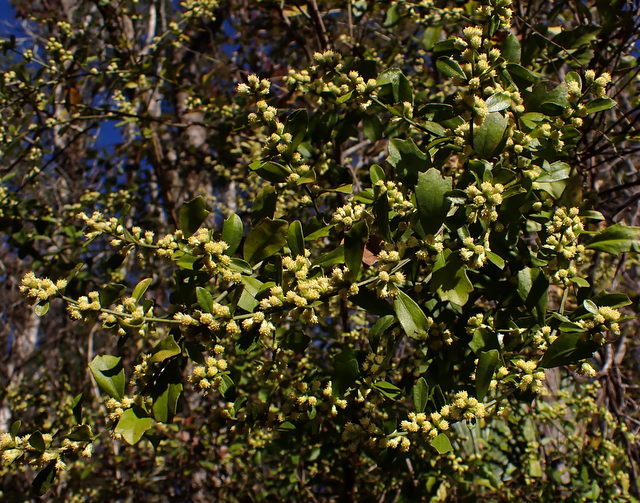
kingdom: Plantae
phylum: Tracheophyta
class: Magnoliopsida
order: Asterales
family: Asteraceae
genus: Baccharis
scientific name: Baccharis glomeruliflora
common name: Silverling groundsel bush
